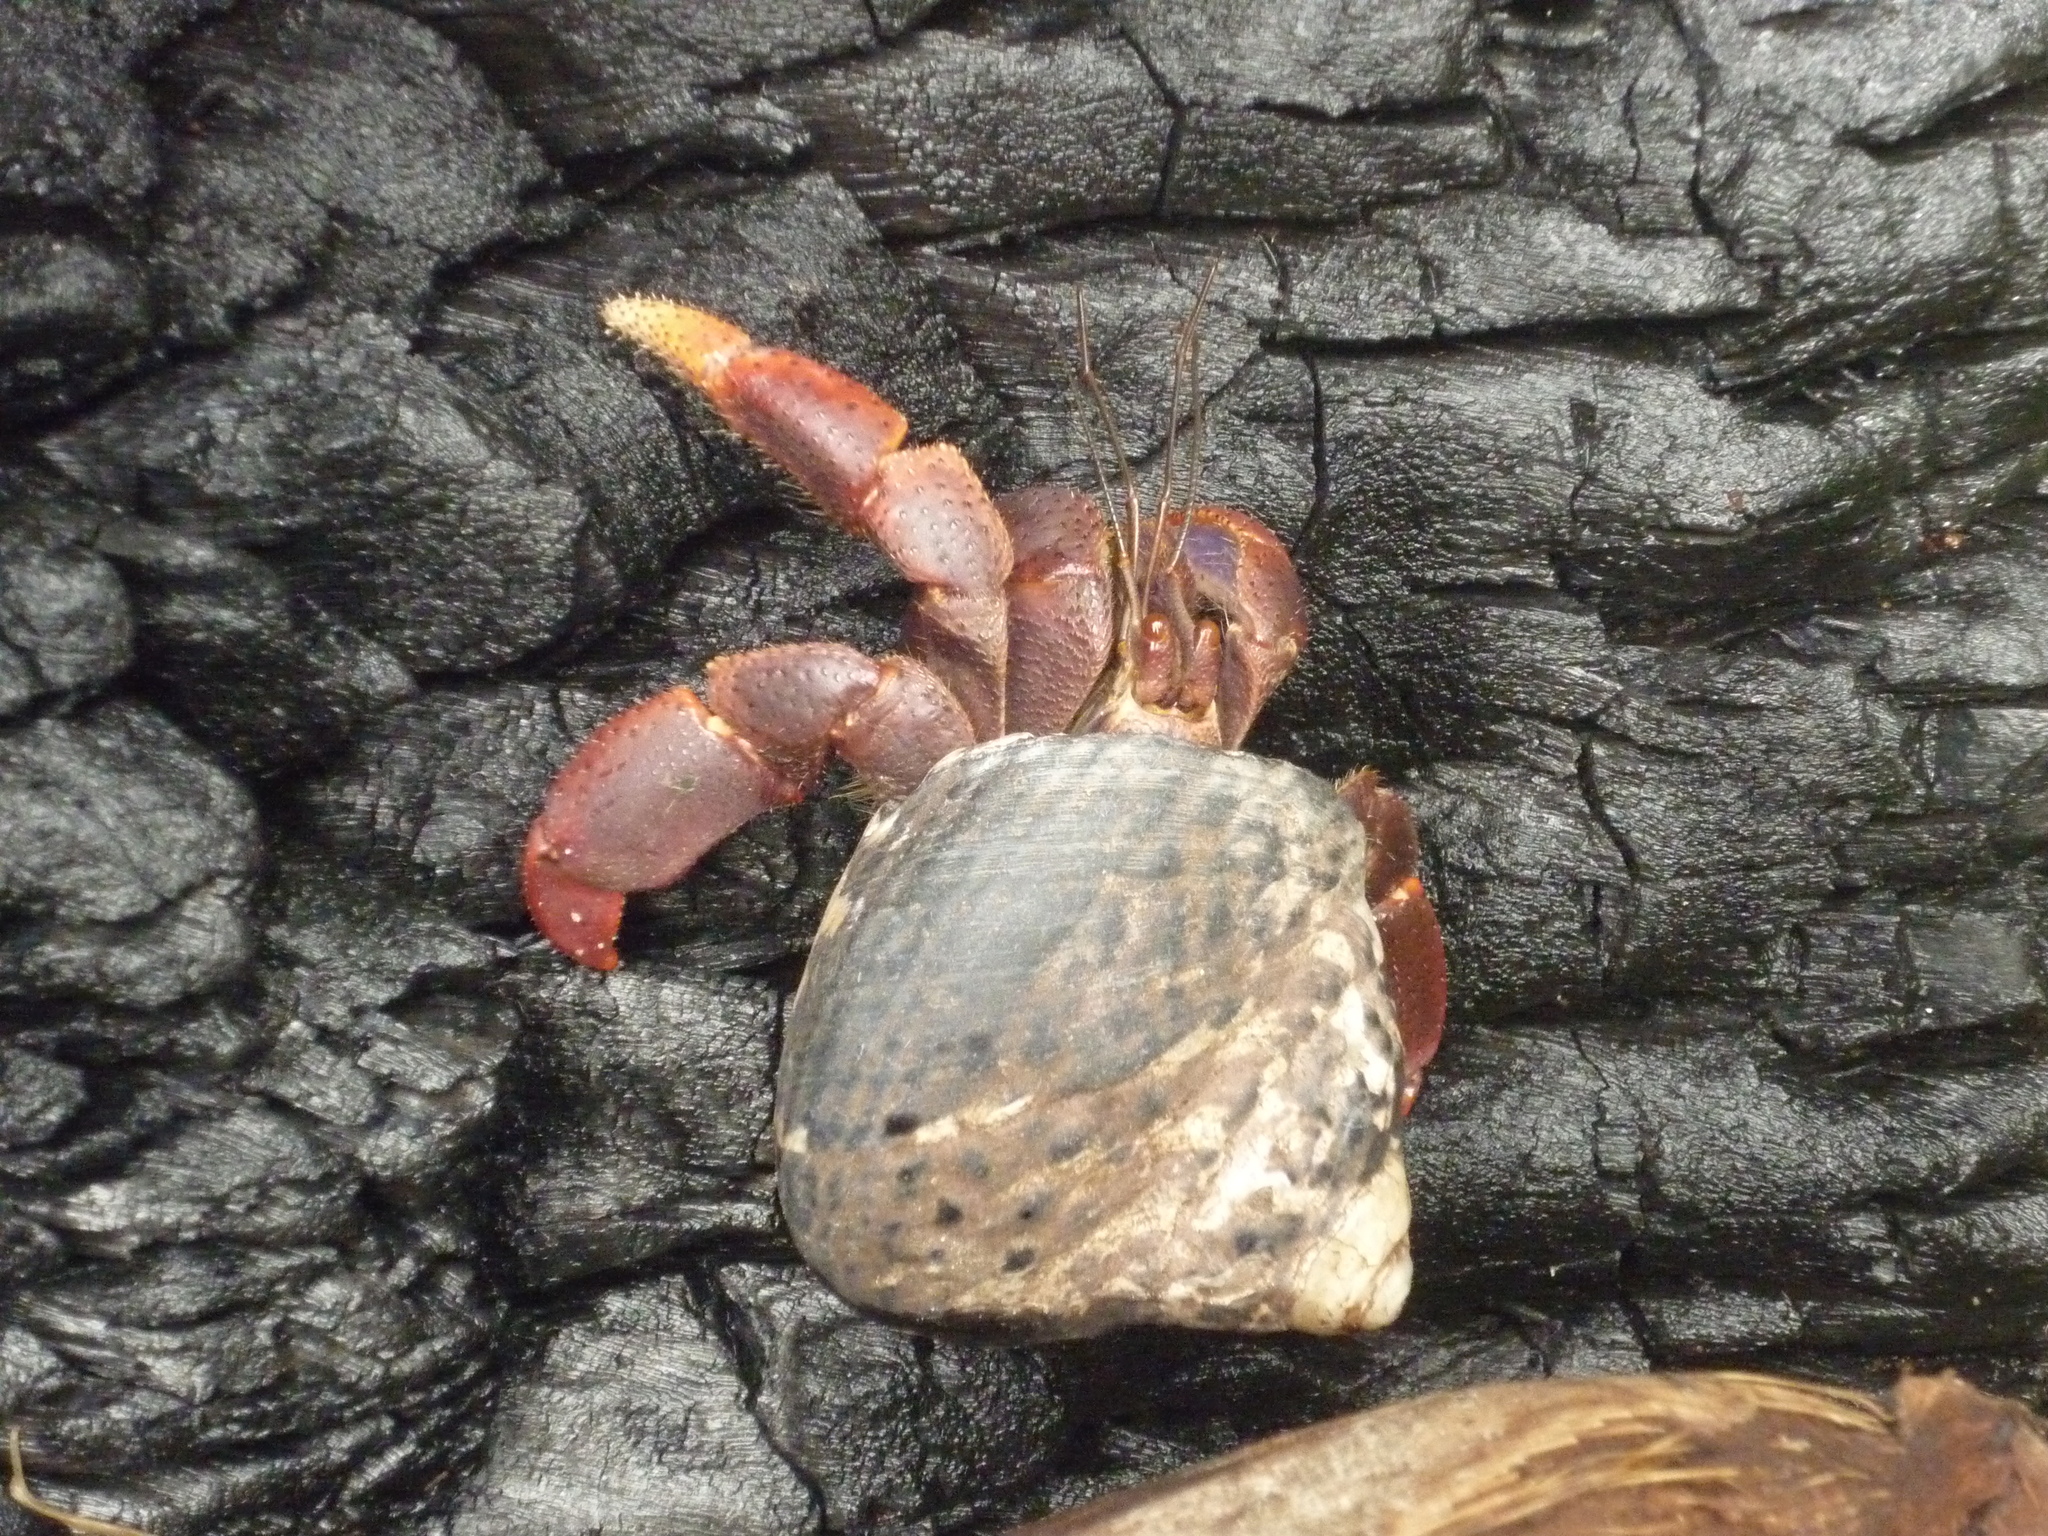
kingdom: Animalia
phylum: Arthropoda
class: Malacostraca
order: Decapoda
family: Coenobitidae
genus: Coenobita
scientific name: Coenobita clypeatus
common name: Caribbean hermit crab
